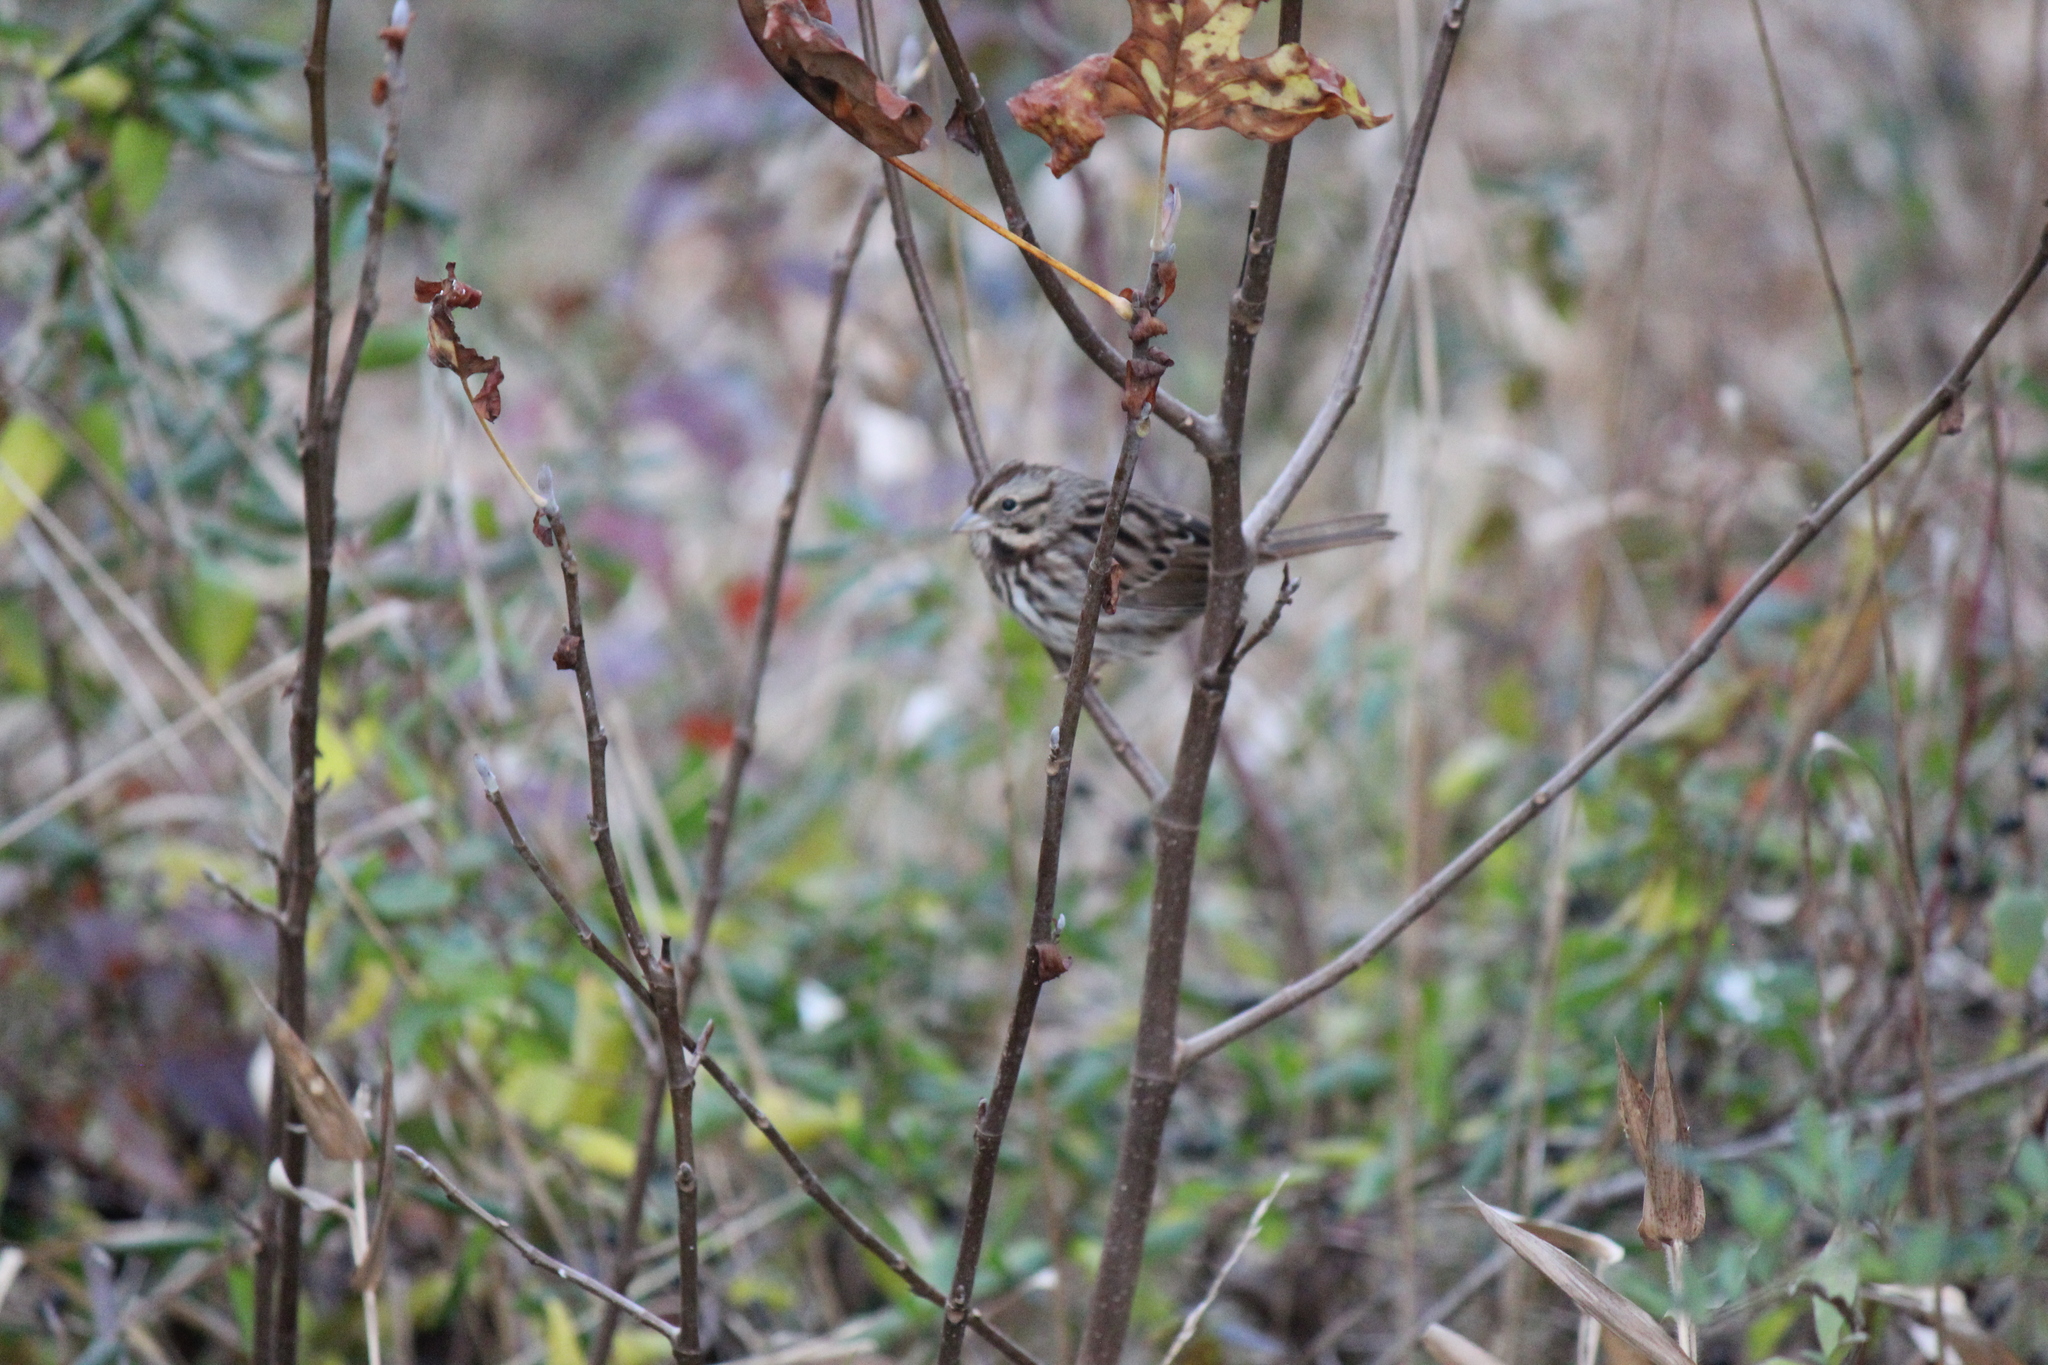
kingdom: Animalia
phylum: Chordata
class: Aves
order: Passeriformes
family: Passerellidae
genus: Melospiza
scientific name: Melospiza melodia
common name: Song sparrow
